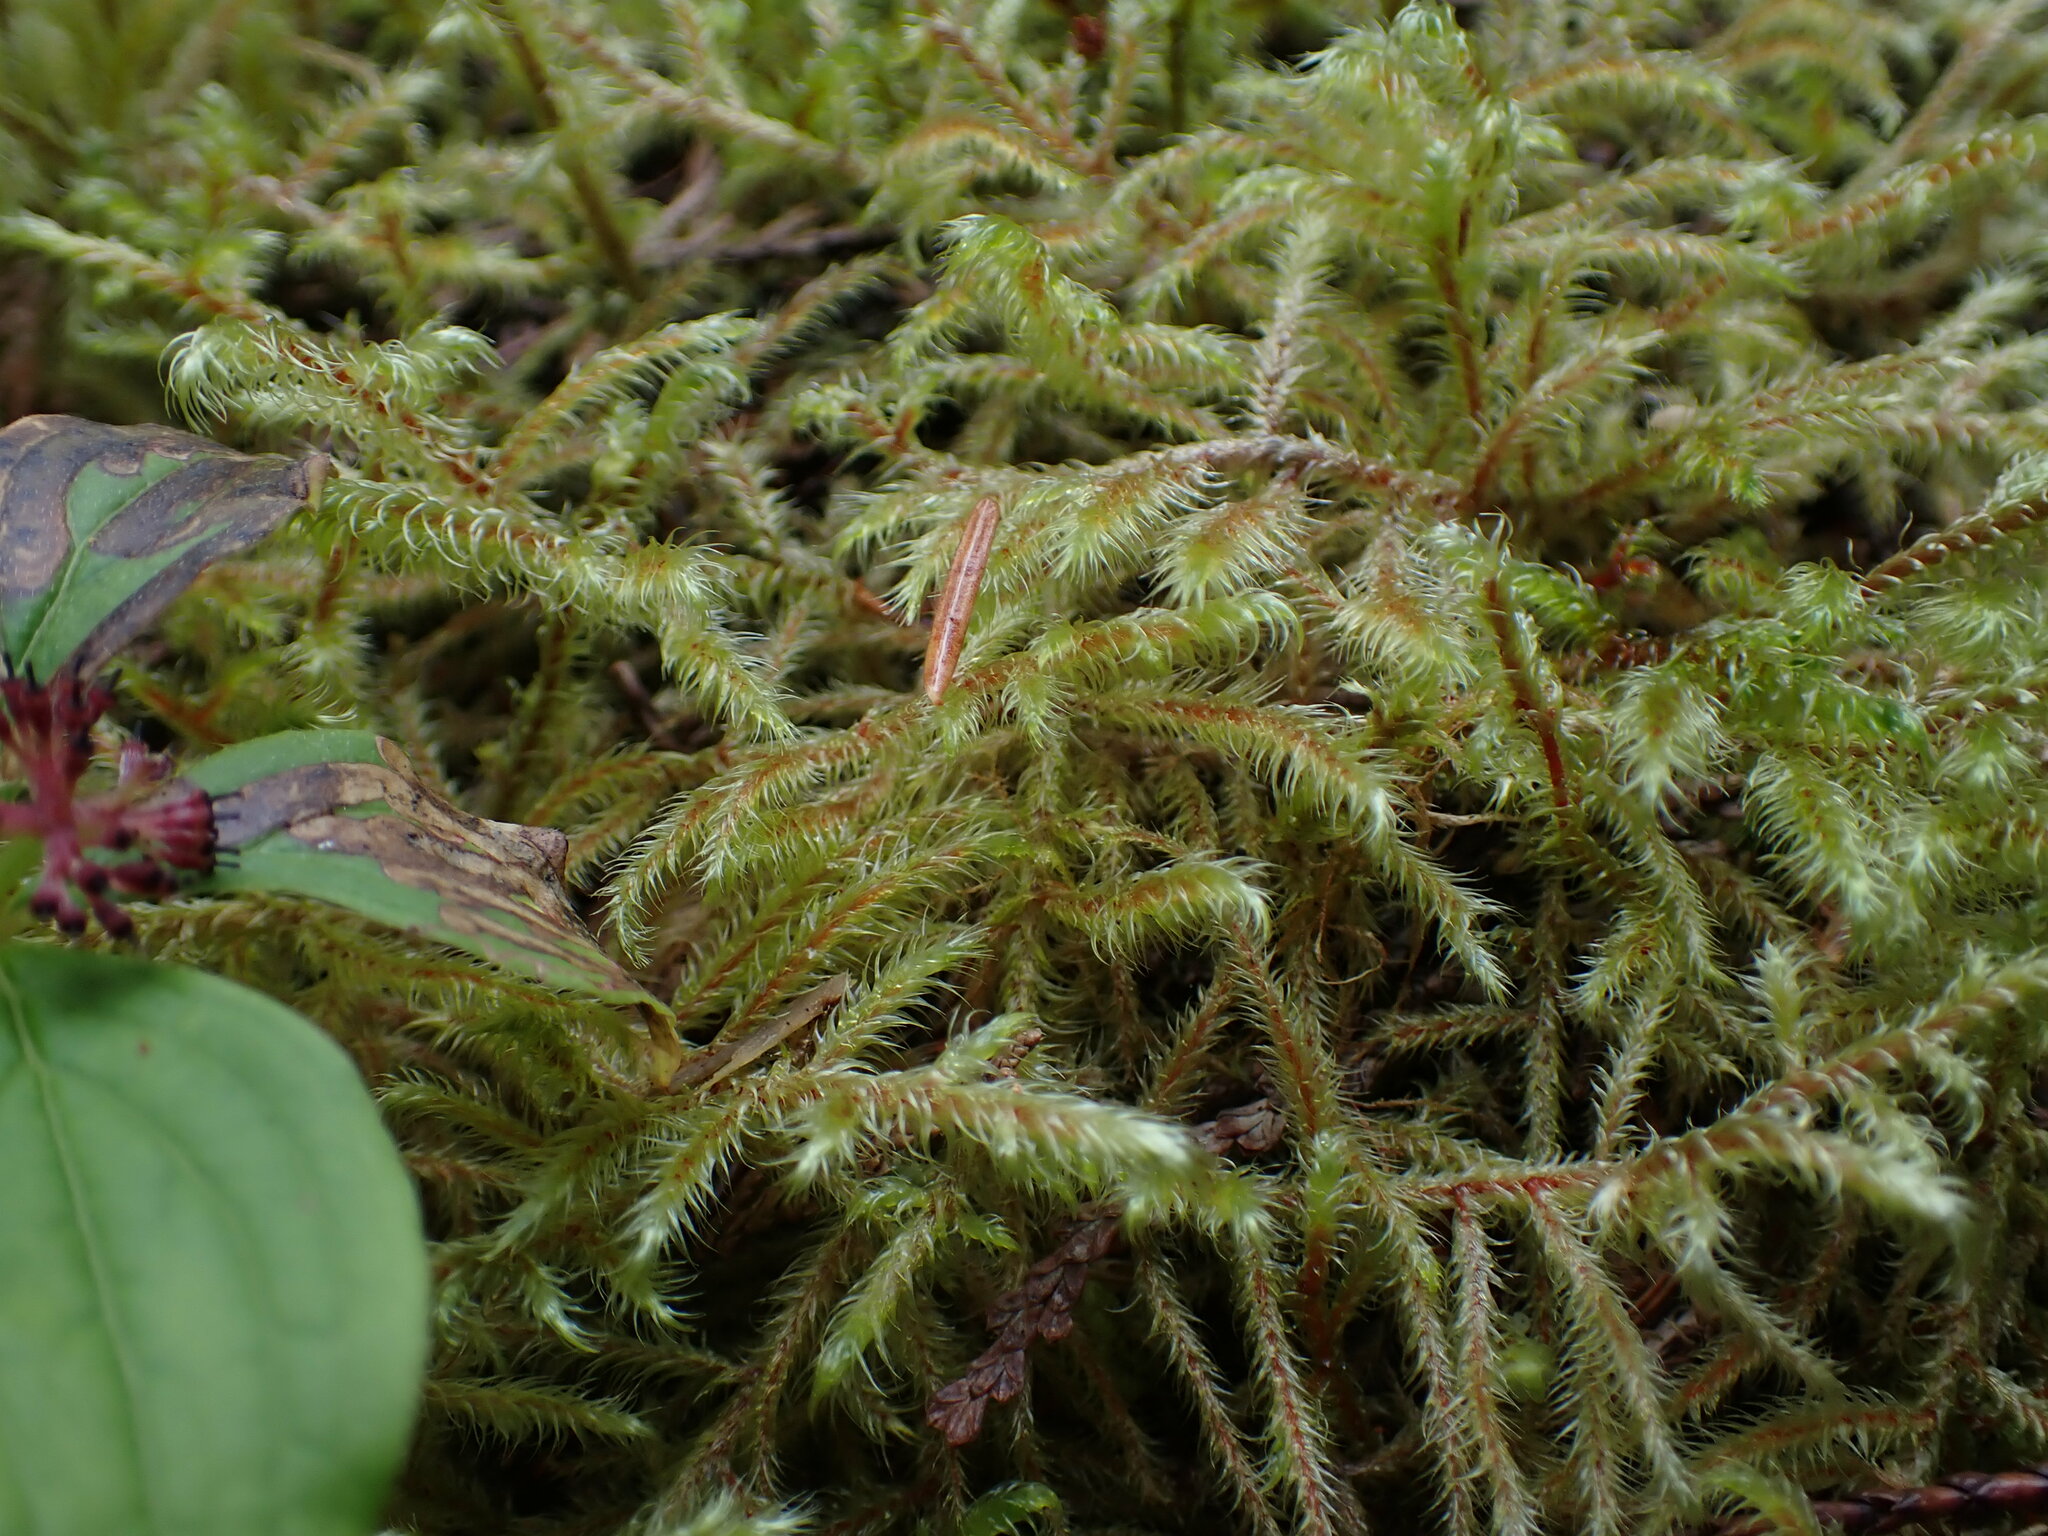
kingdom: Plantae
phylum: Bryophyta
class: Bryopsida
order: Hypnales
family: Hylocomiaceae
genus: Rhytidiadelphus
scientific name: Rhytidiadelphus loreus
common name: Lanky moss
